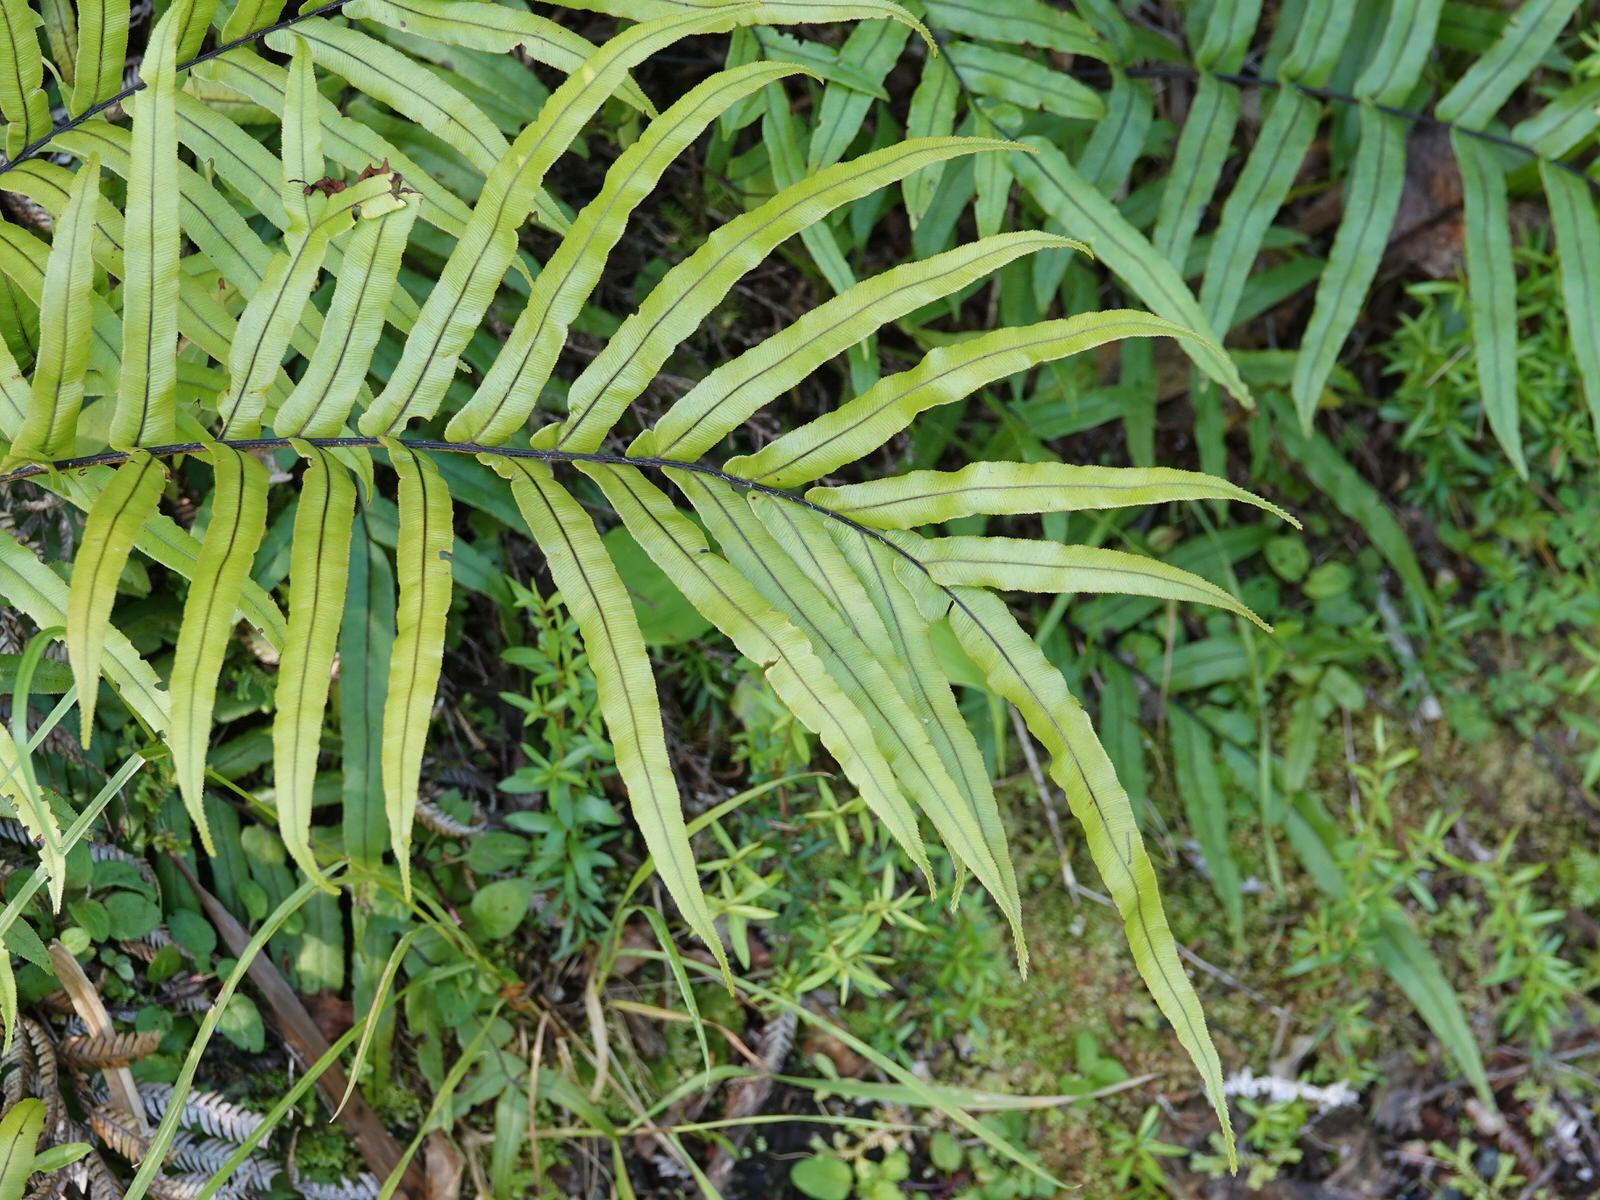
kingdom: Plantae
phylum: Tracheophyta
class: Polypodiopsida
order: Polypodiales
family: Blechnaceae
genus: Parablechnum
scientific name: Parablechnum minus
